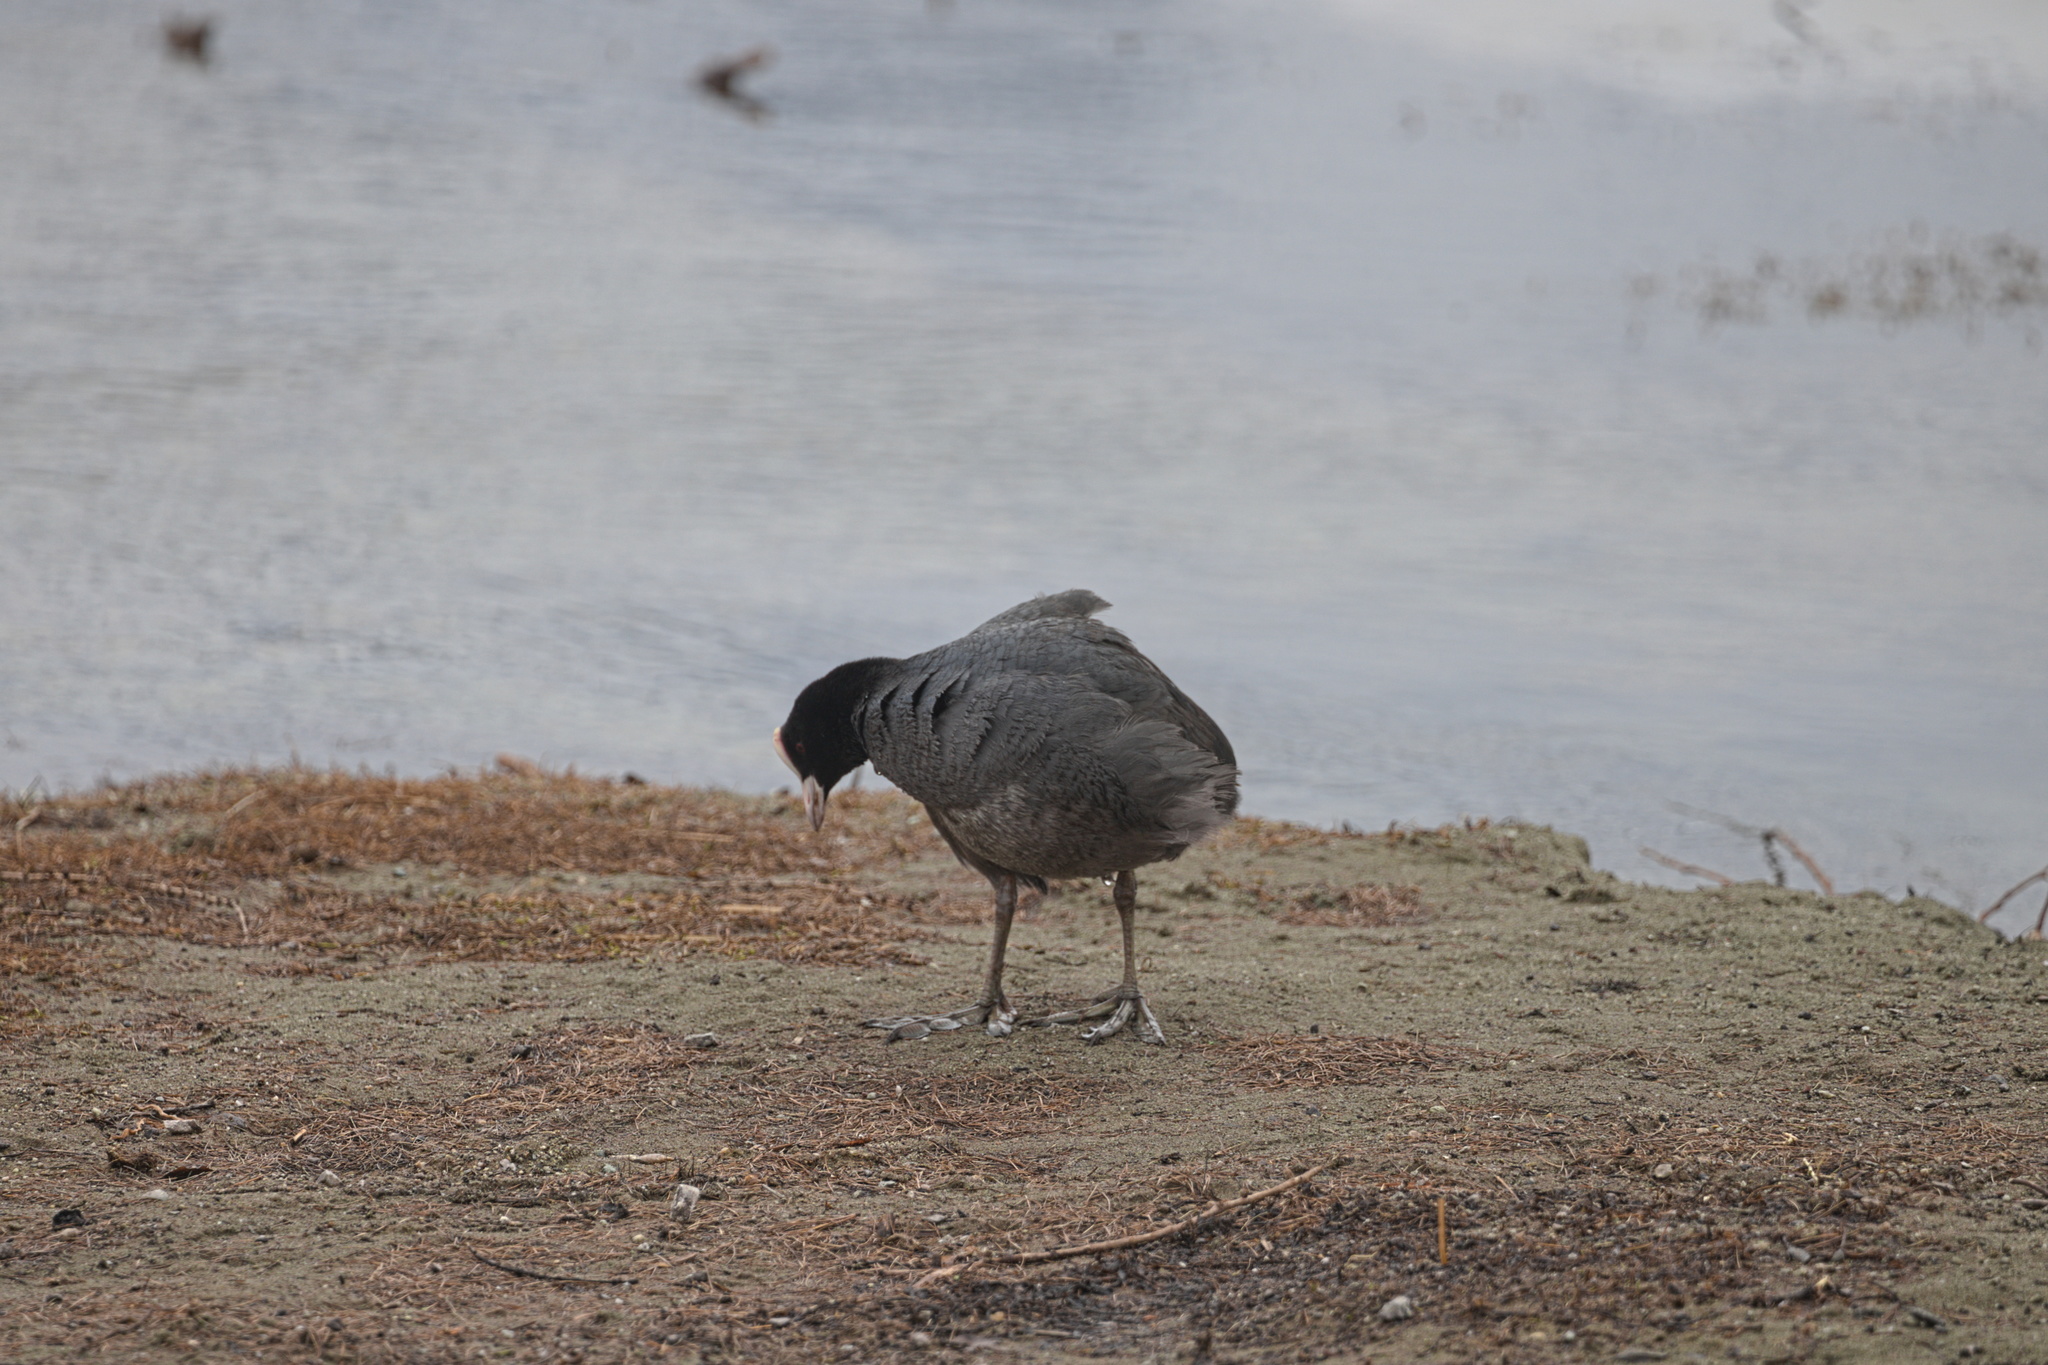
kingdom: Animalia
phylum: Chordata
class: Aves
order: Gruiformes
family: Rallidae
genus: Fulica
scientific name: Fulica atra
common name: Eurasian coot
